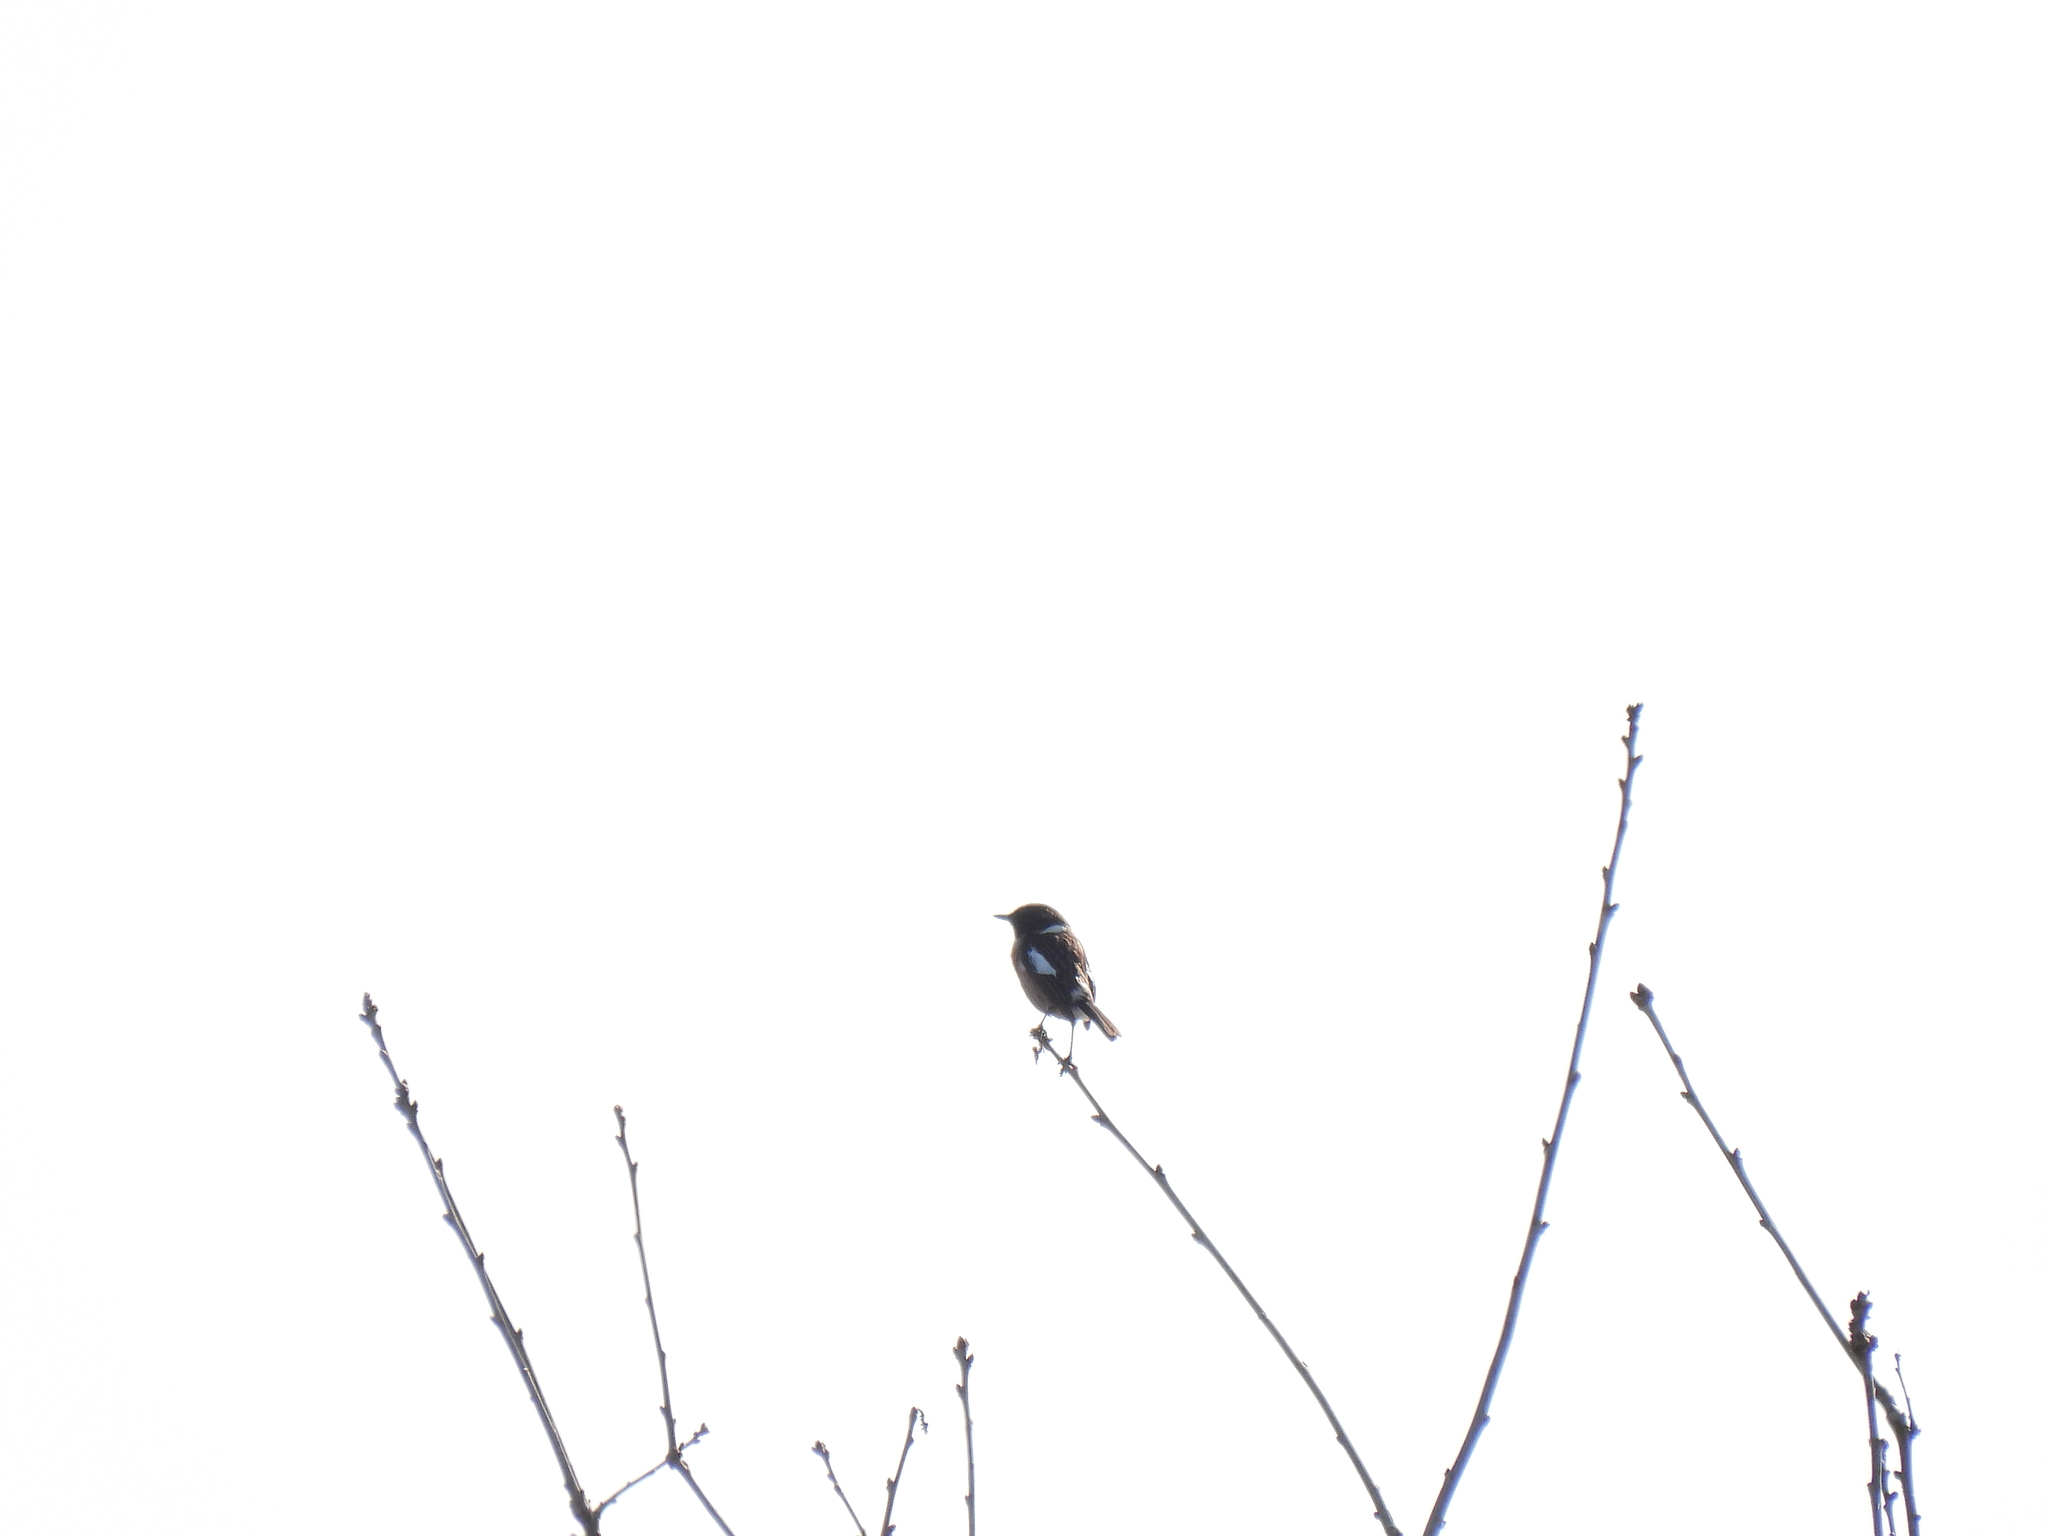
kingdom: Animalia
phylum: Chordata
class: Aves
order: Passeriformes
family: Muscicapidae
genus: Saxicola
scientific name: Saxicola rubicola
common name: European stonechat
